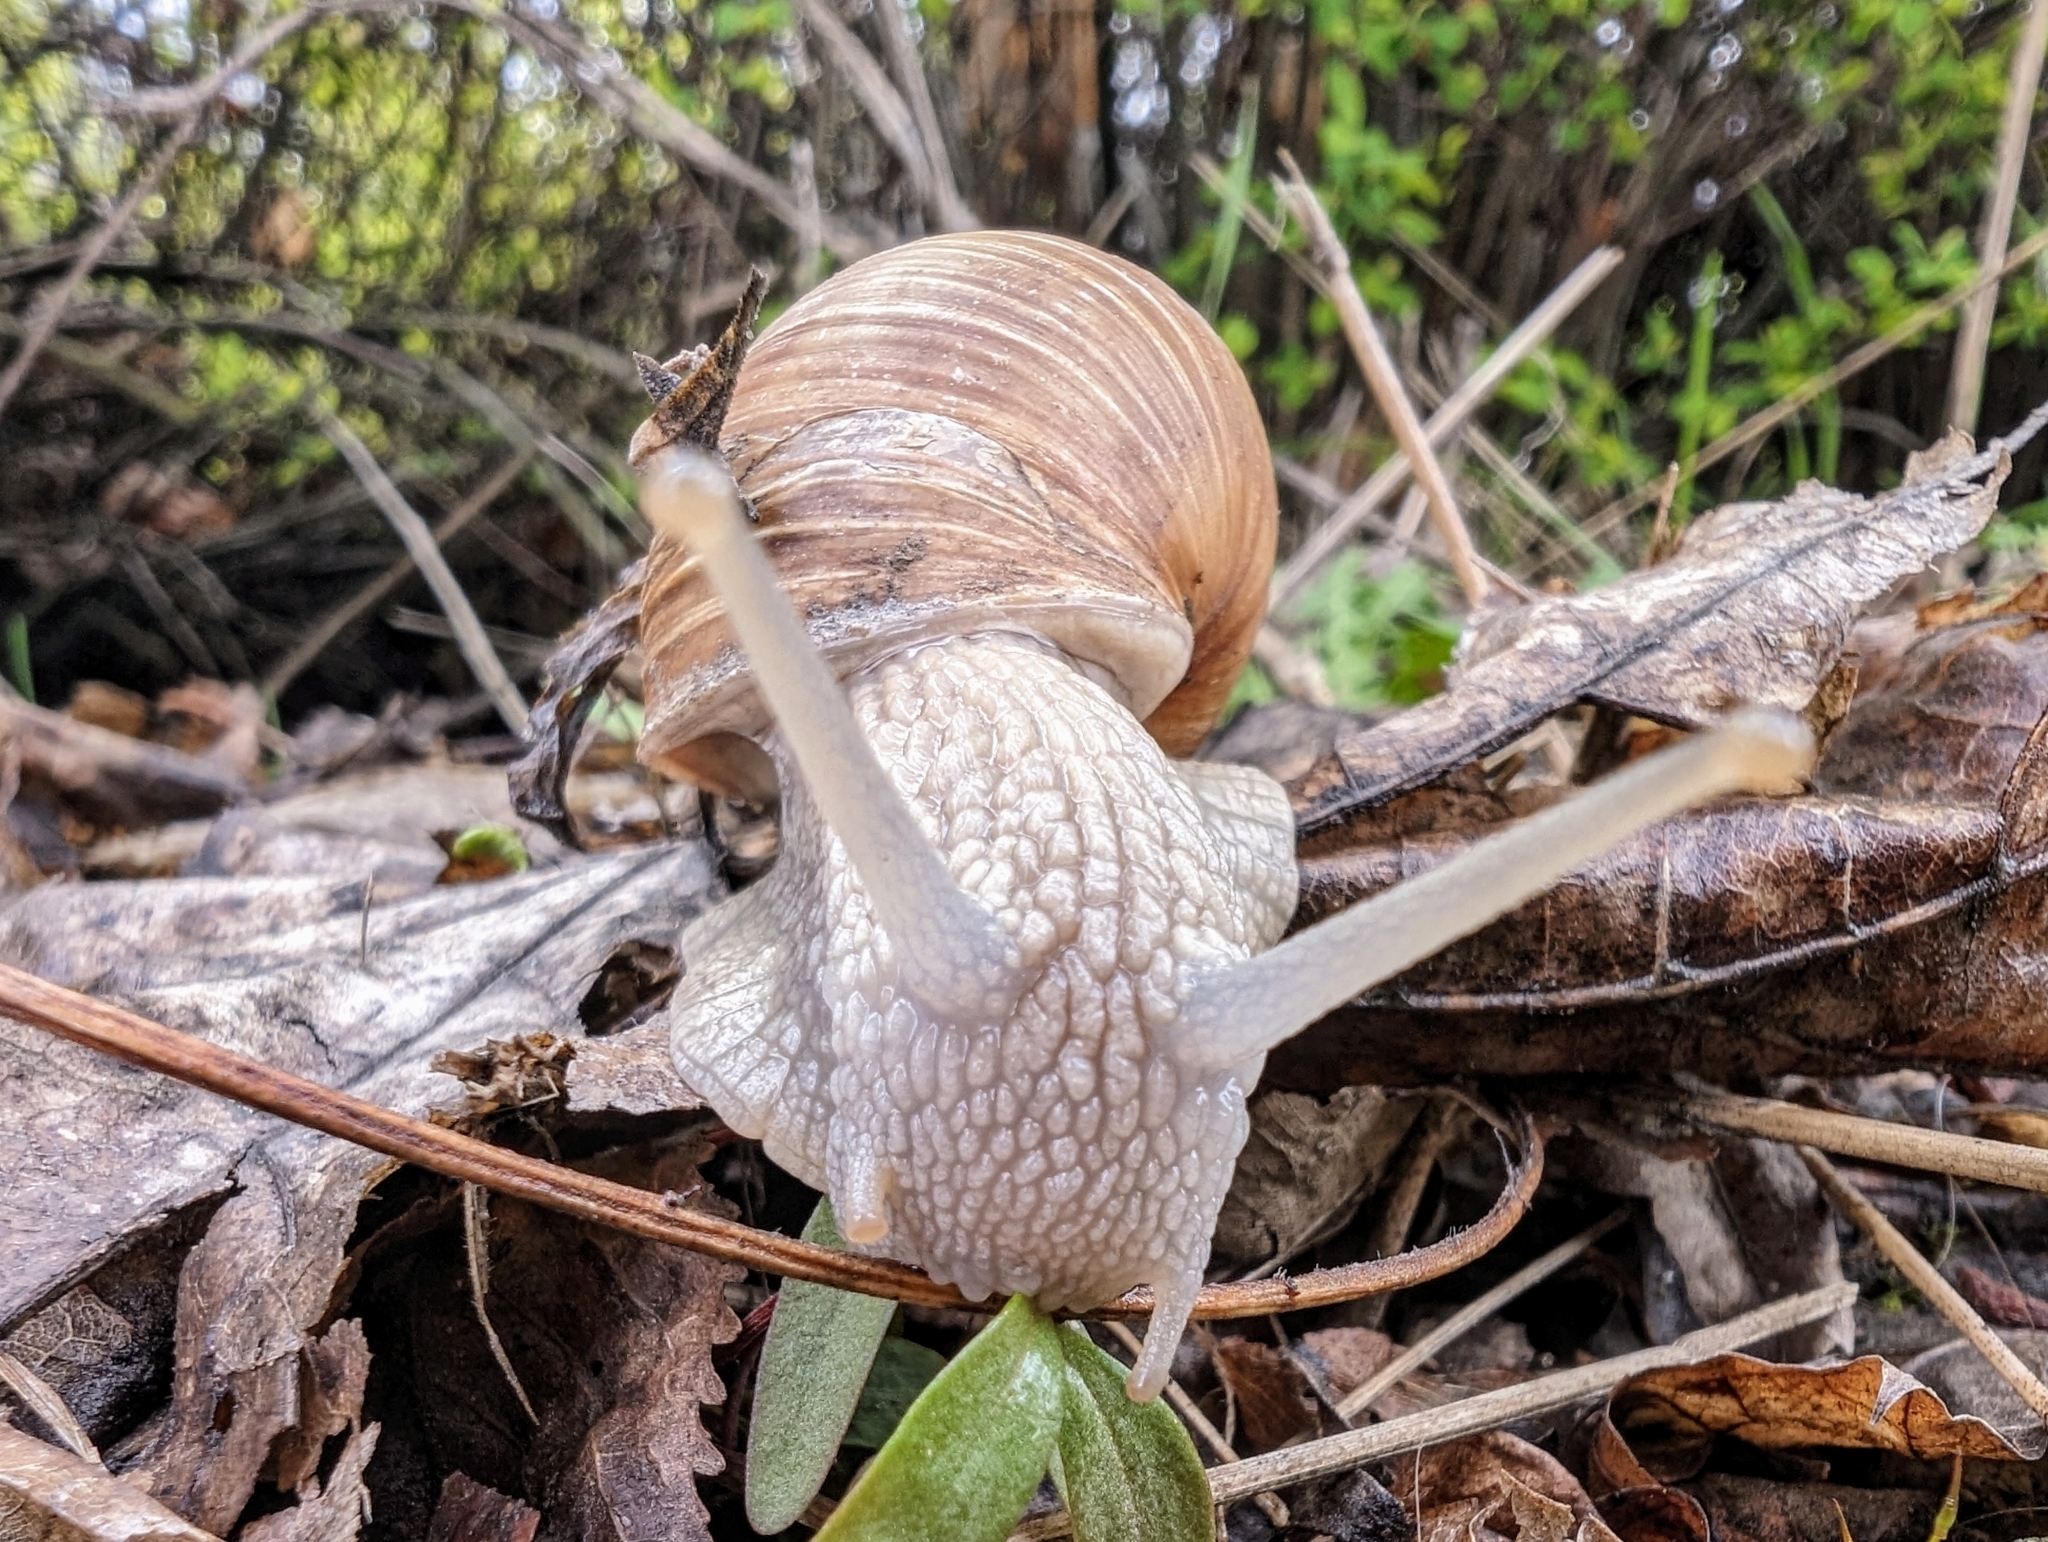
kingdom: Animalia
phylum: Mollusca
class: Gastropoda
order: Stylommatophora
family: Helicidae
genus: Helix
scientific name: Helix pomatia
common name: Roman snail
